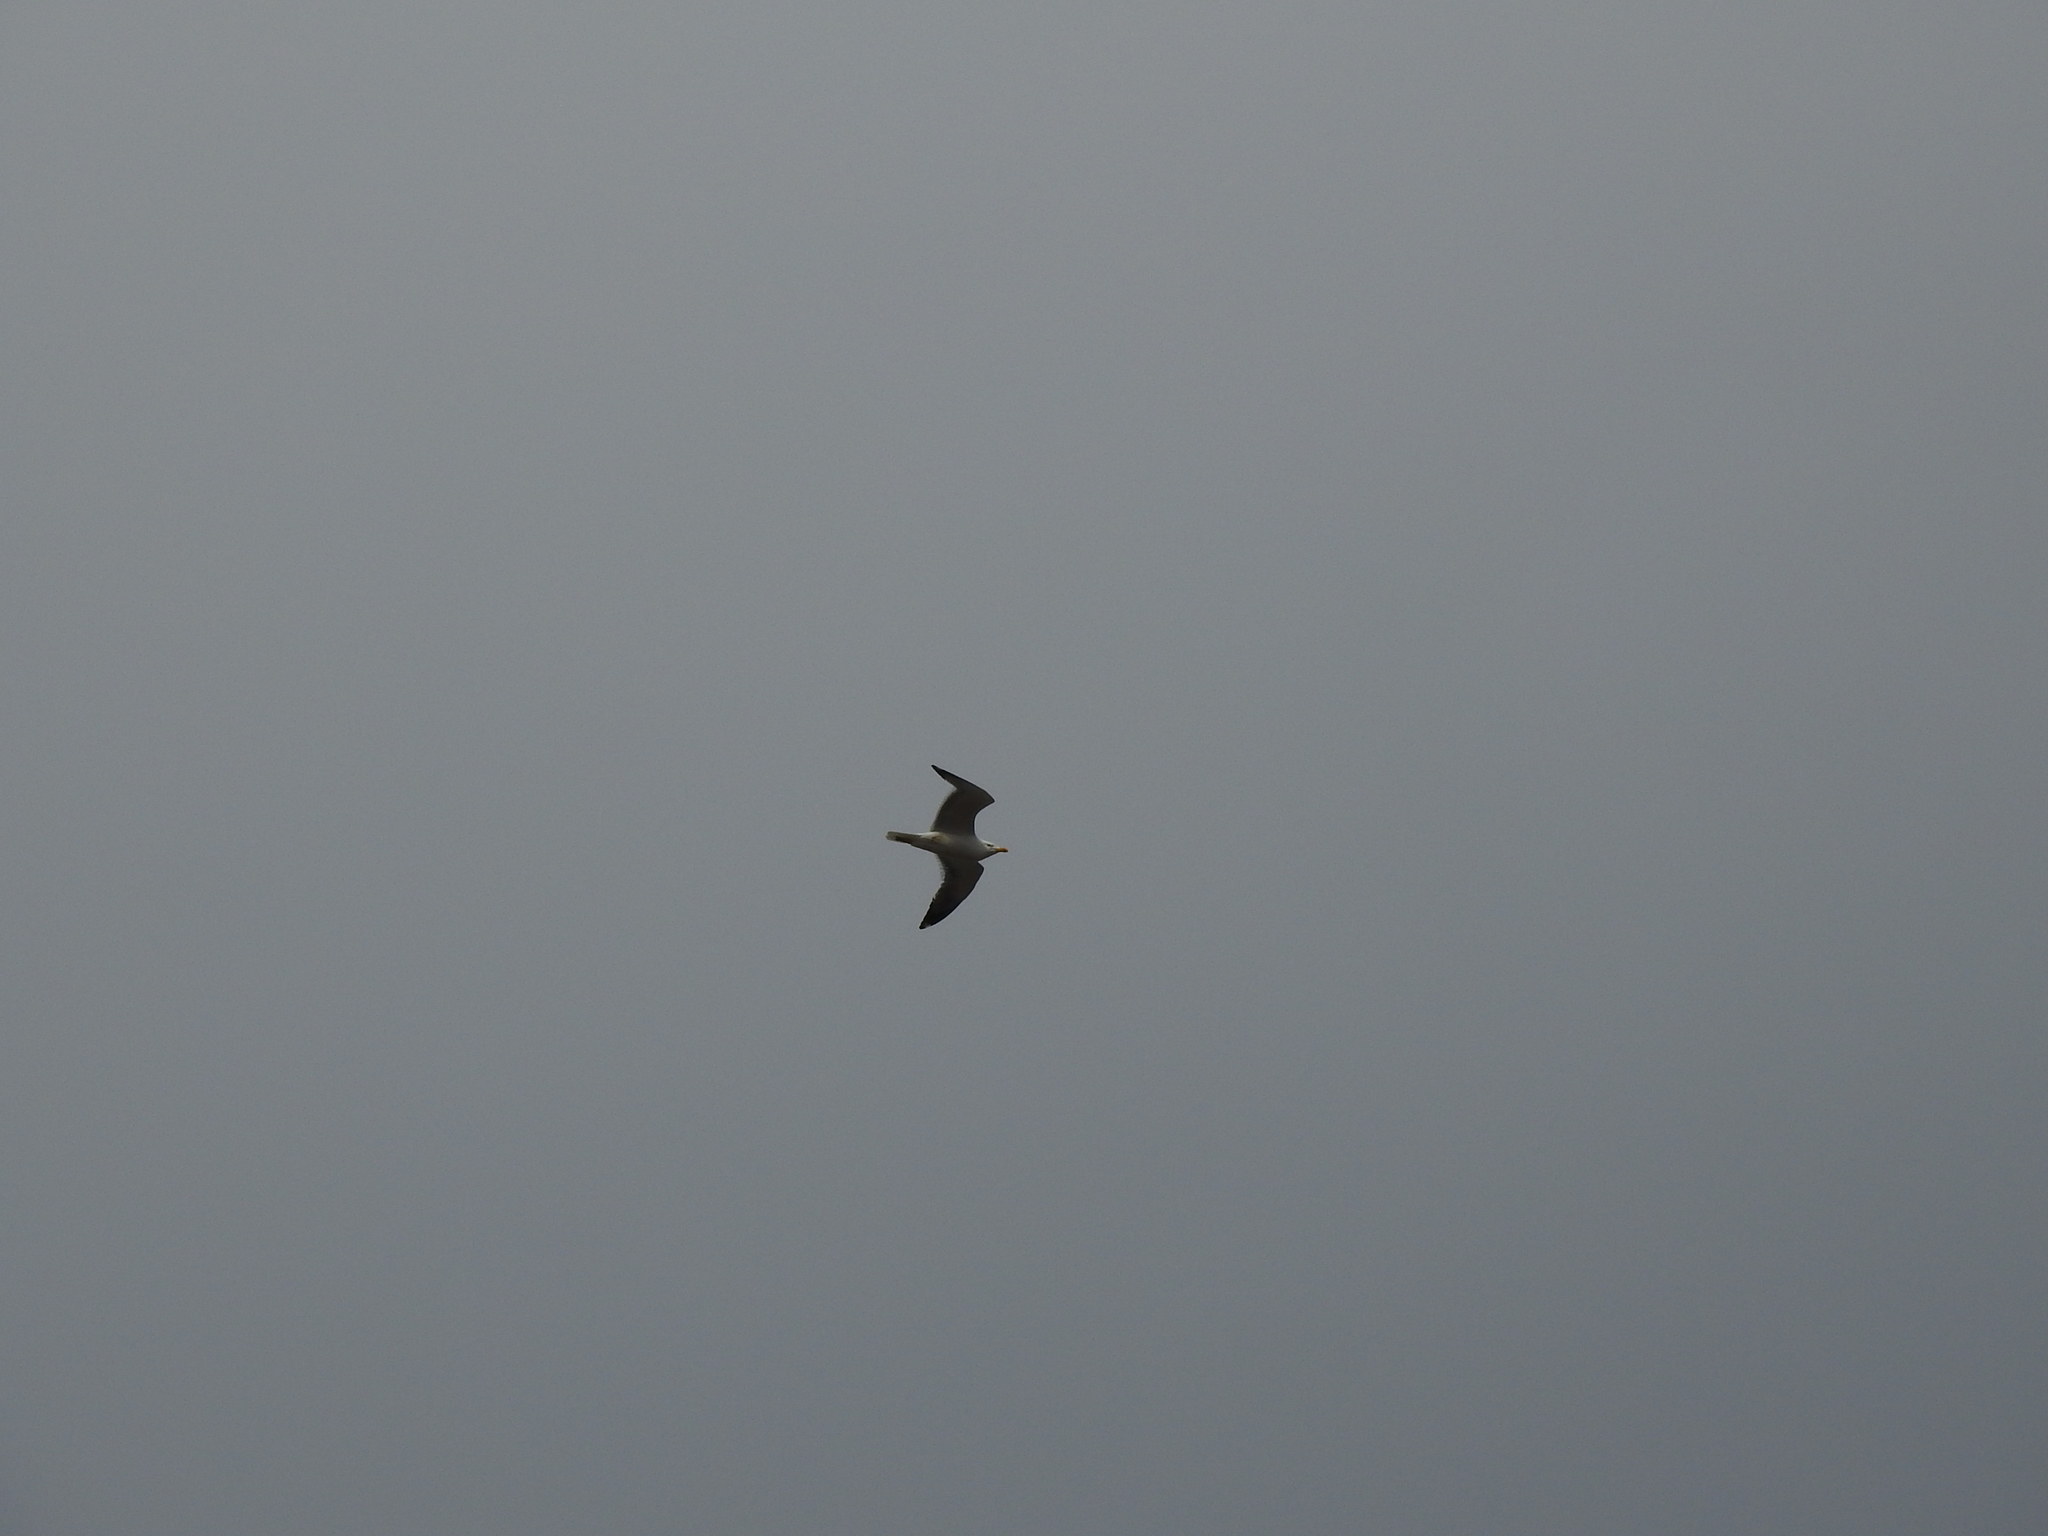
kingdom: Animalia
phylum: Chordata
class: Aves
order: Charadriiformes
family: Laridae
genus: Larus
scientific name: Larus fuscus
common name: Lesser black-backed gull
